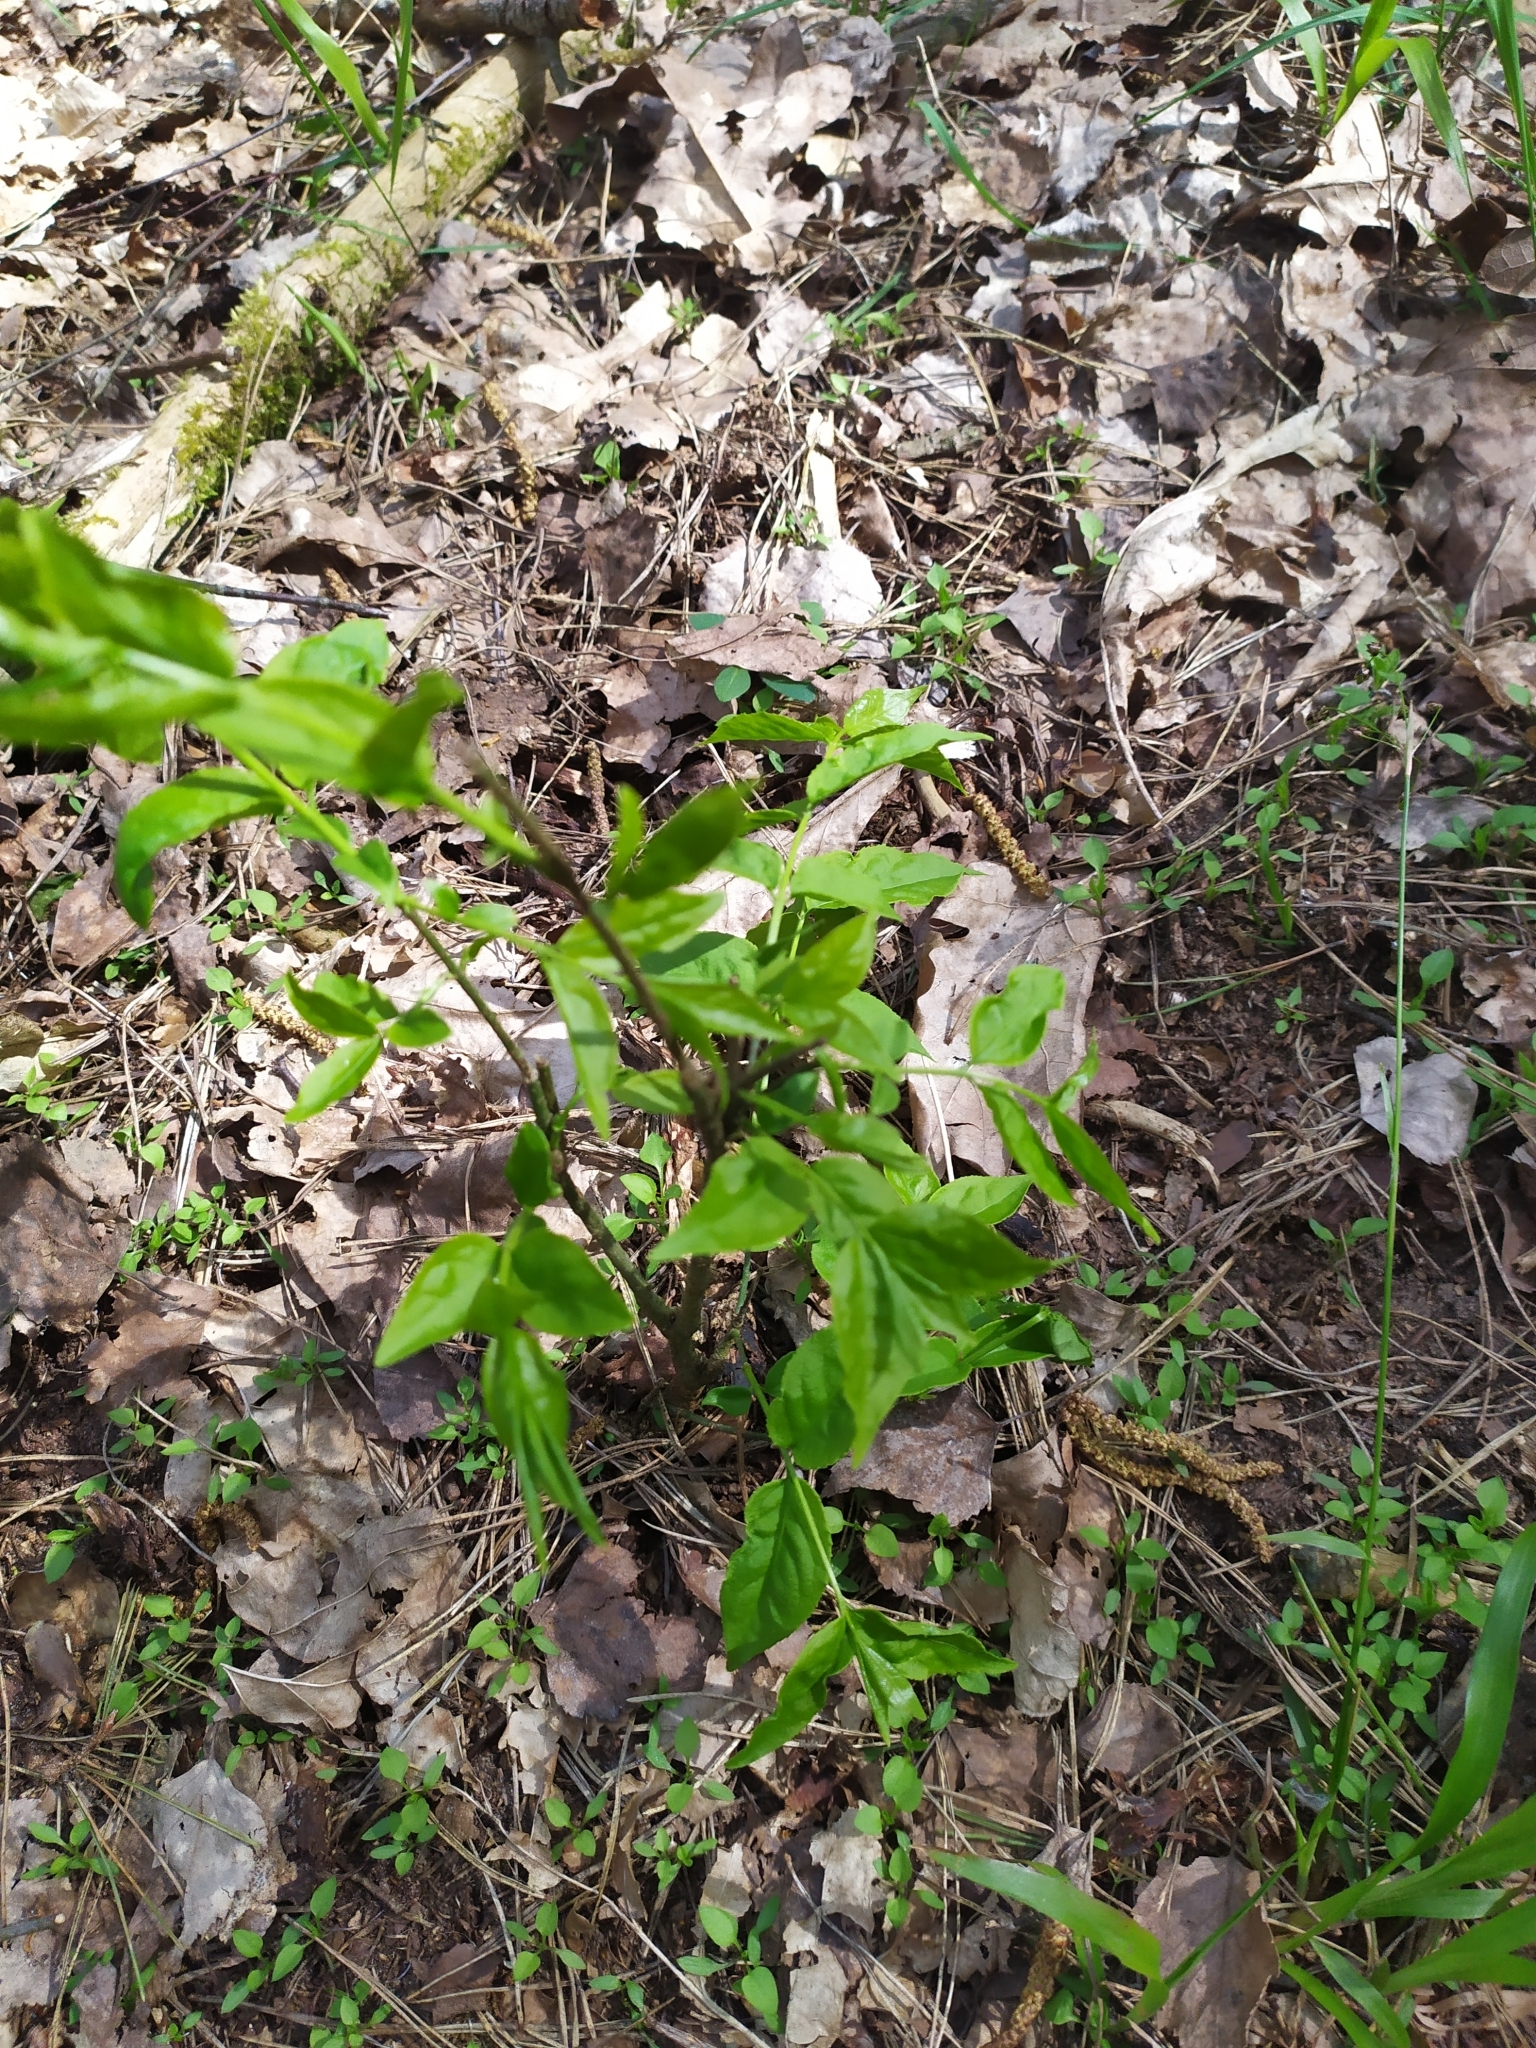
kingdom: Plantae
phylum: Tracheophyta
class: Magnoliopsida
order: Celastrales
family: Celastraceae
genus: Euonymus
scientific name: Euonymus verrucosus
